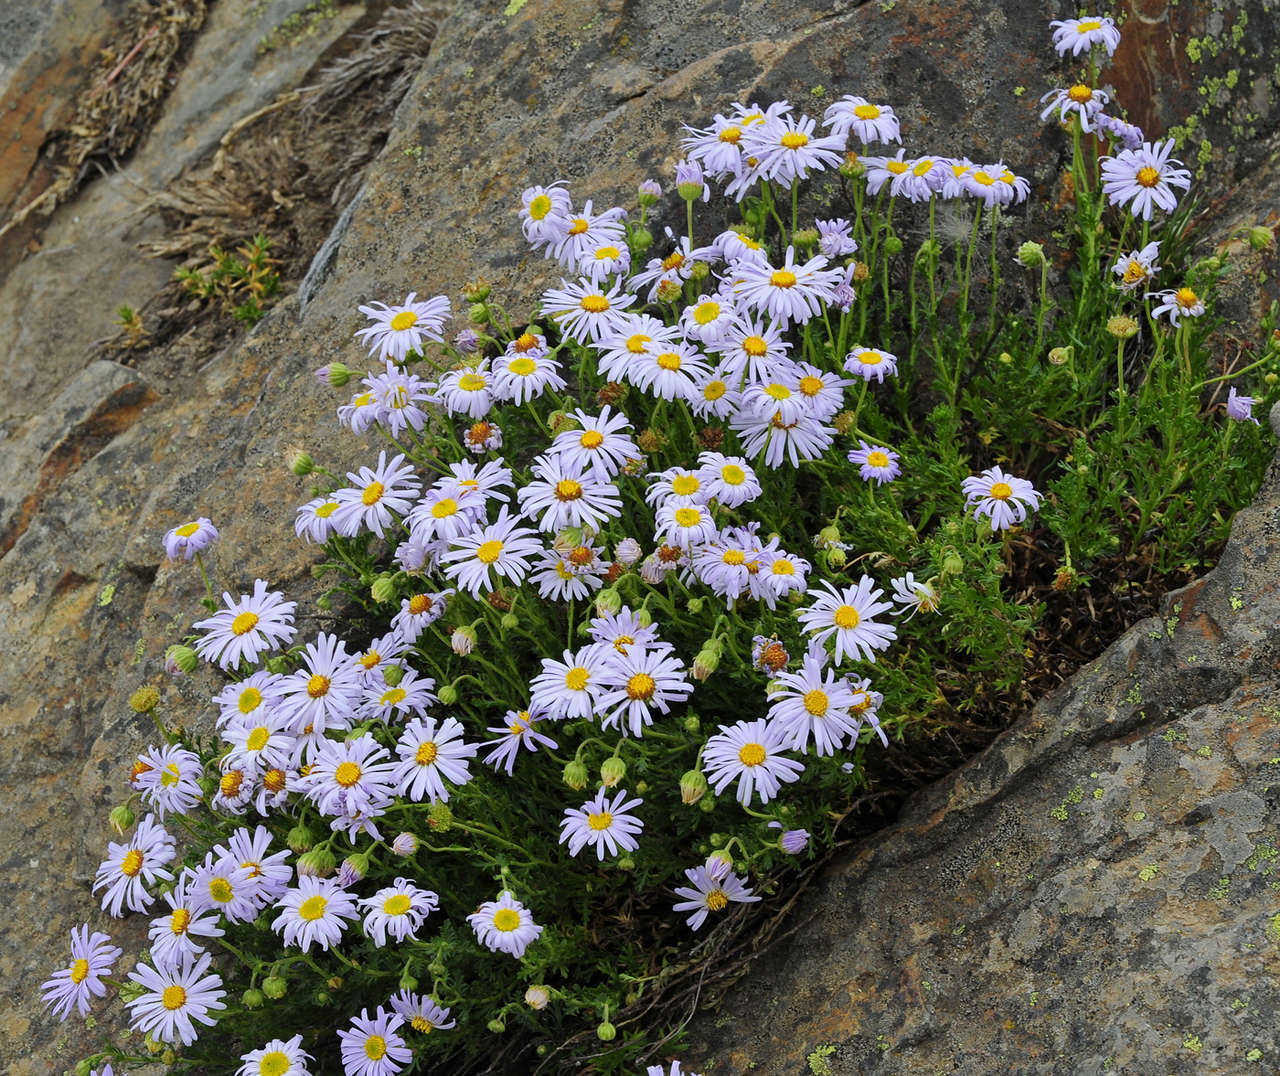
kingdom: Plantae
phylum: Tracheophyta
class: Magnoliopsida
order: Asterales
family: Asteraceae
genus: Brachyscome
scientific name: Brachyscome rigidula
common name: Leafy daisy
